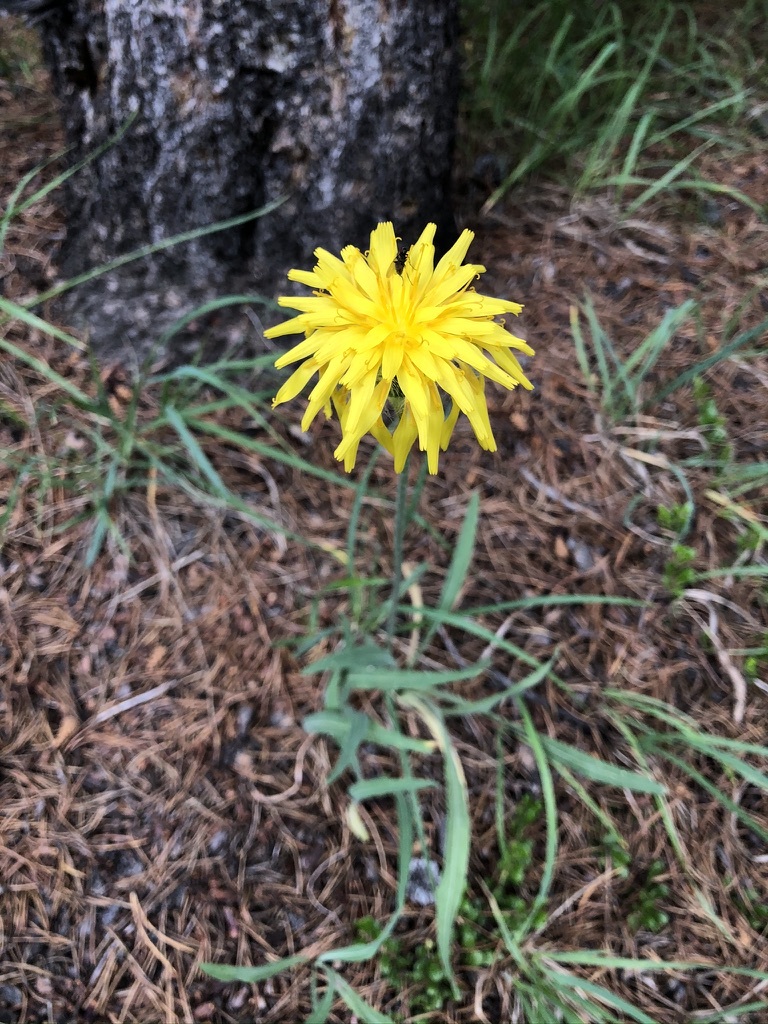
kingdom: Plantae
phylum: Tracheophyta
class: Magnoliopsida
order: Asterales
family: Asteraceae
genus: Agoseris
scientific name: Agoseris glauca
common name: Prairie agoseris
